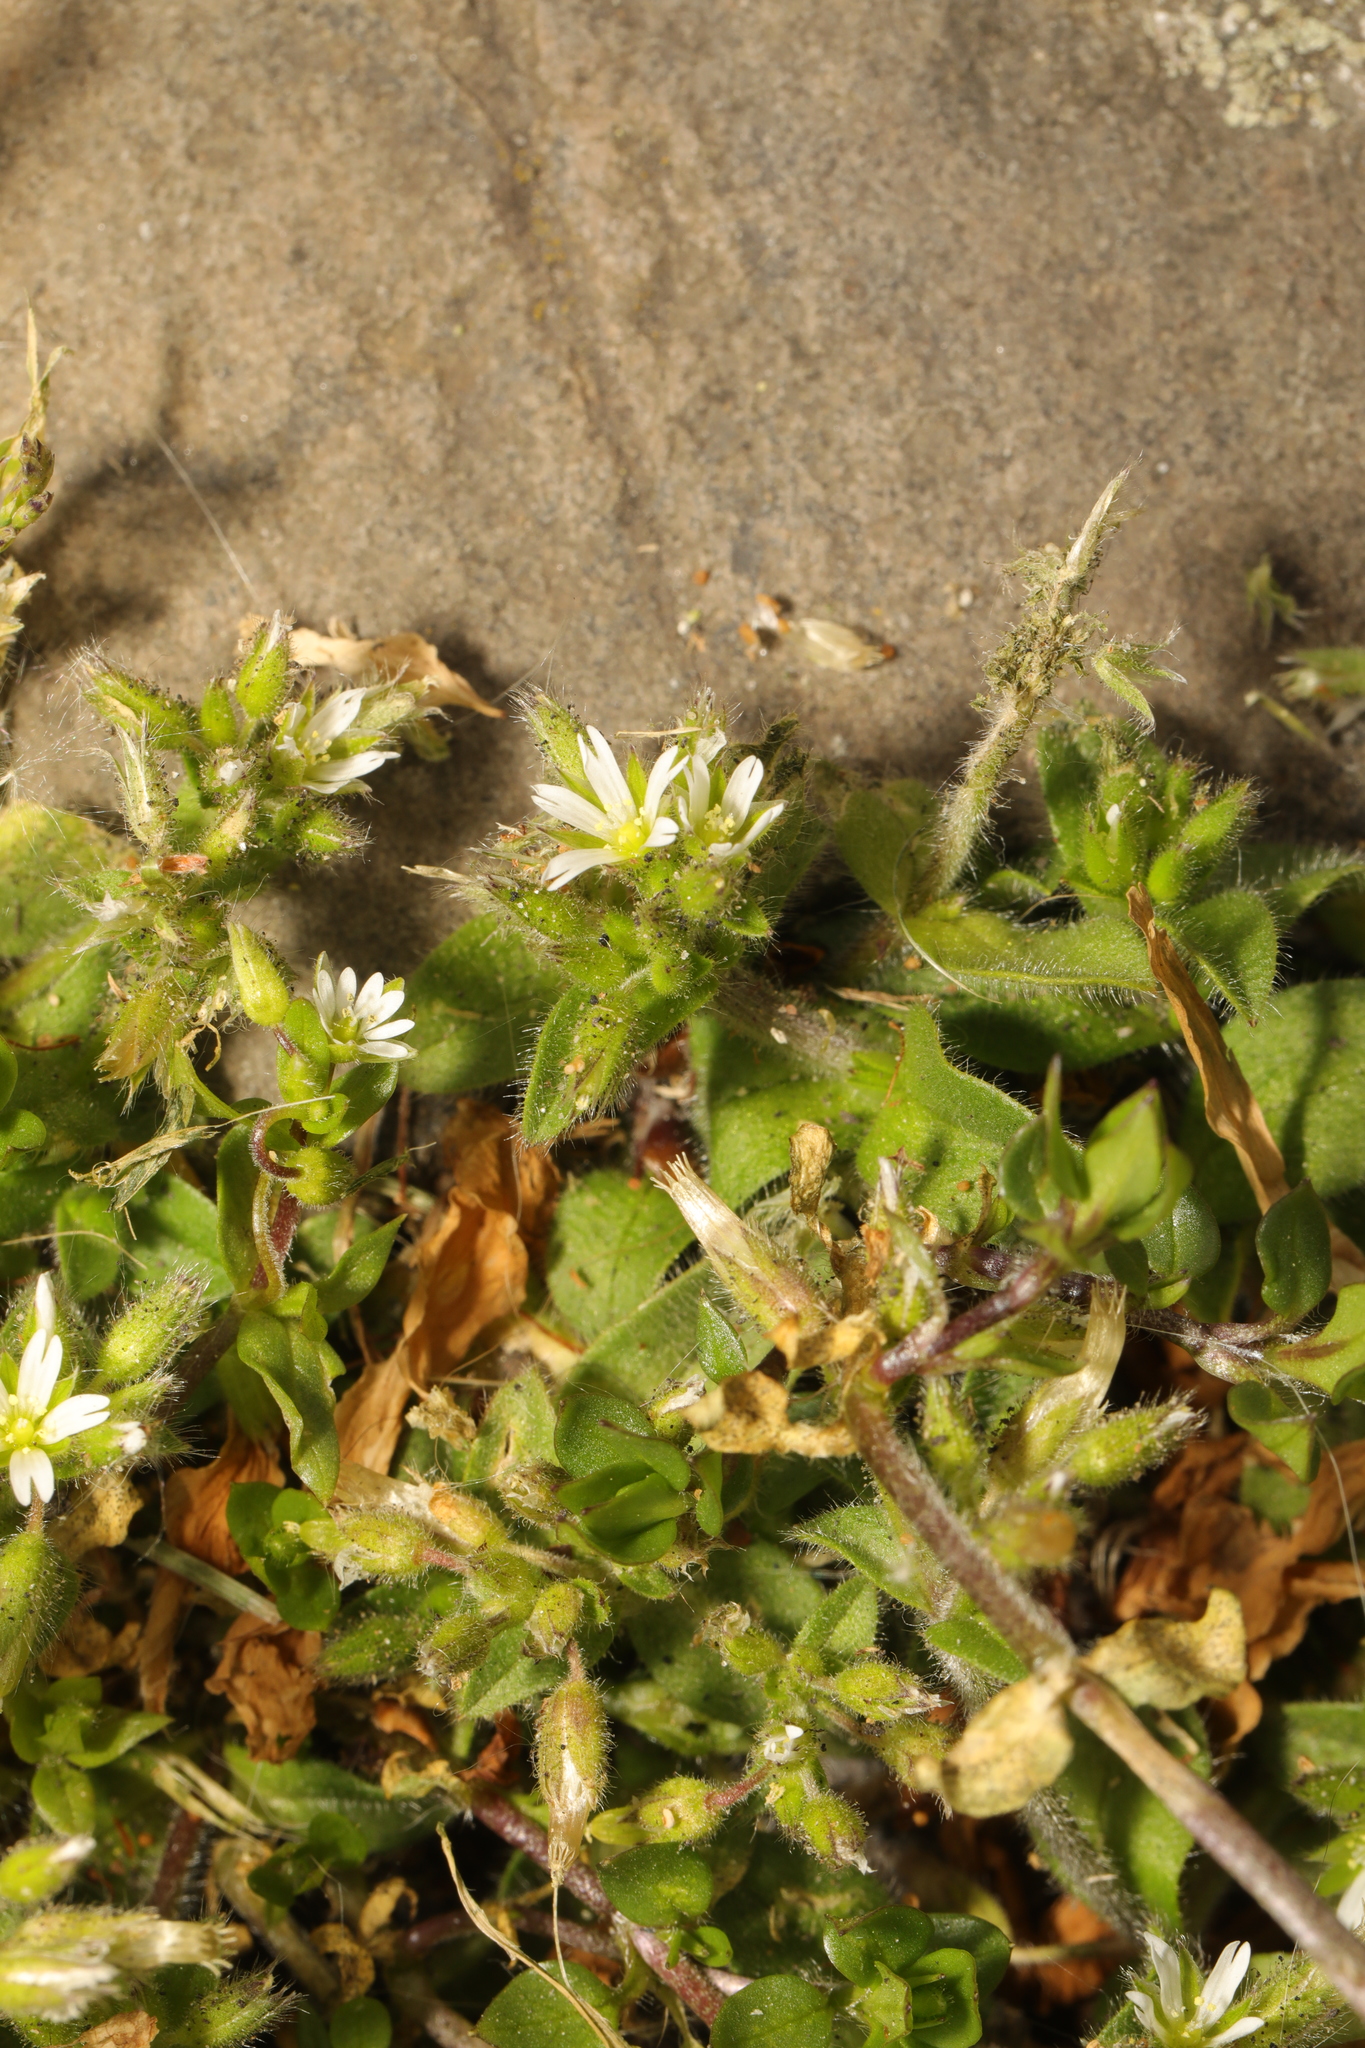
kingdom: Plantae
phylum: Tracheophyta
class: Magnoliopsida
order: Caryophyllales
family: Caryophyllaceae
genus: Cerastium
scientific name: Cerastium glomeratum
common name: Sticky chickweed
